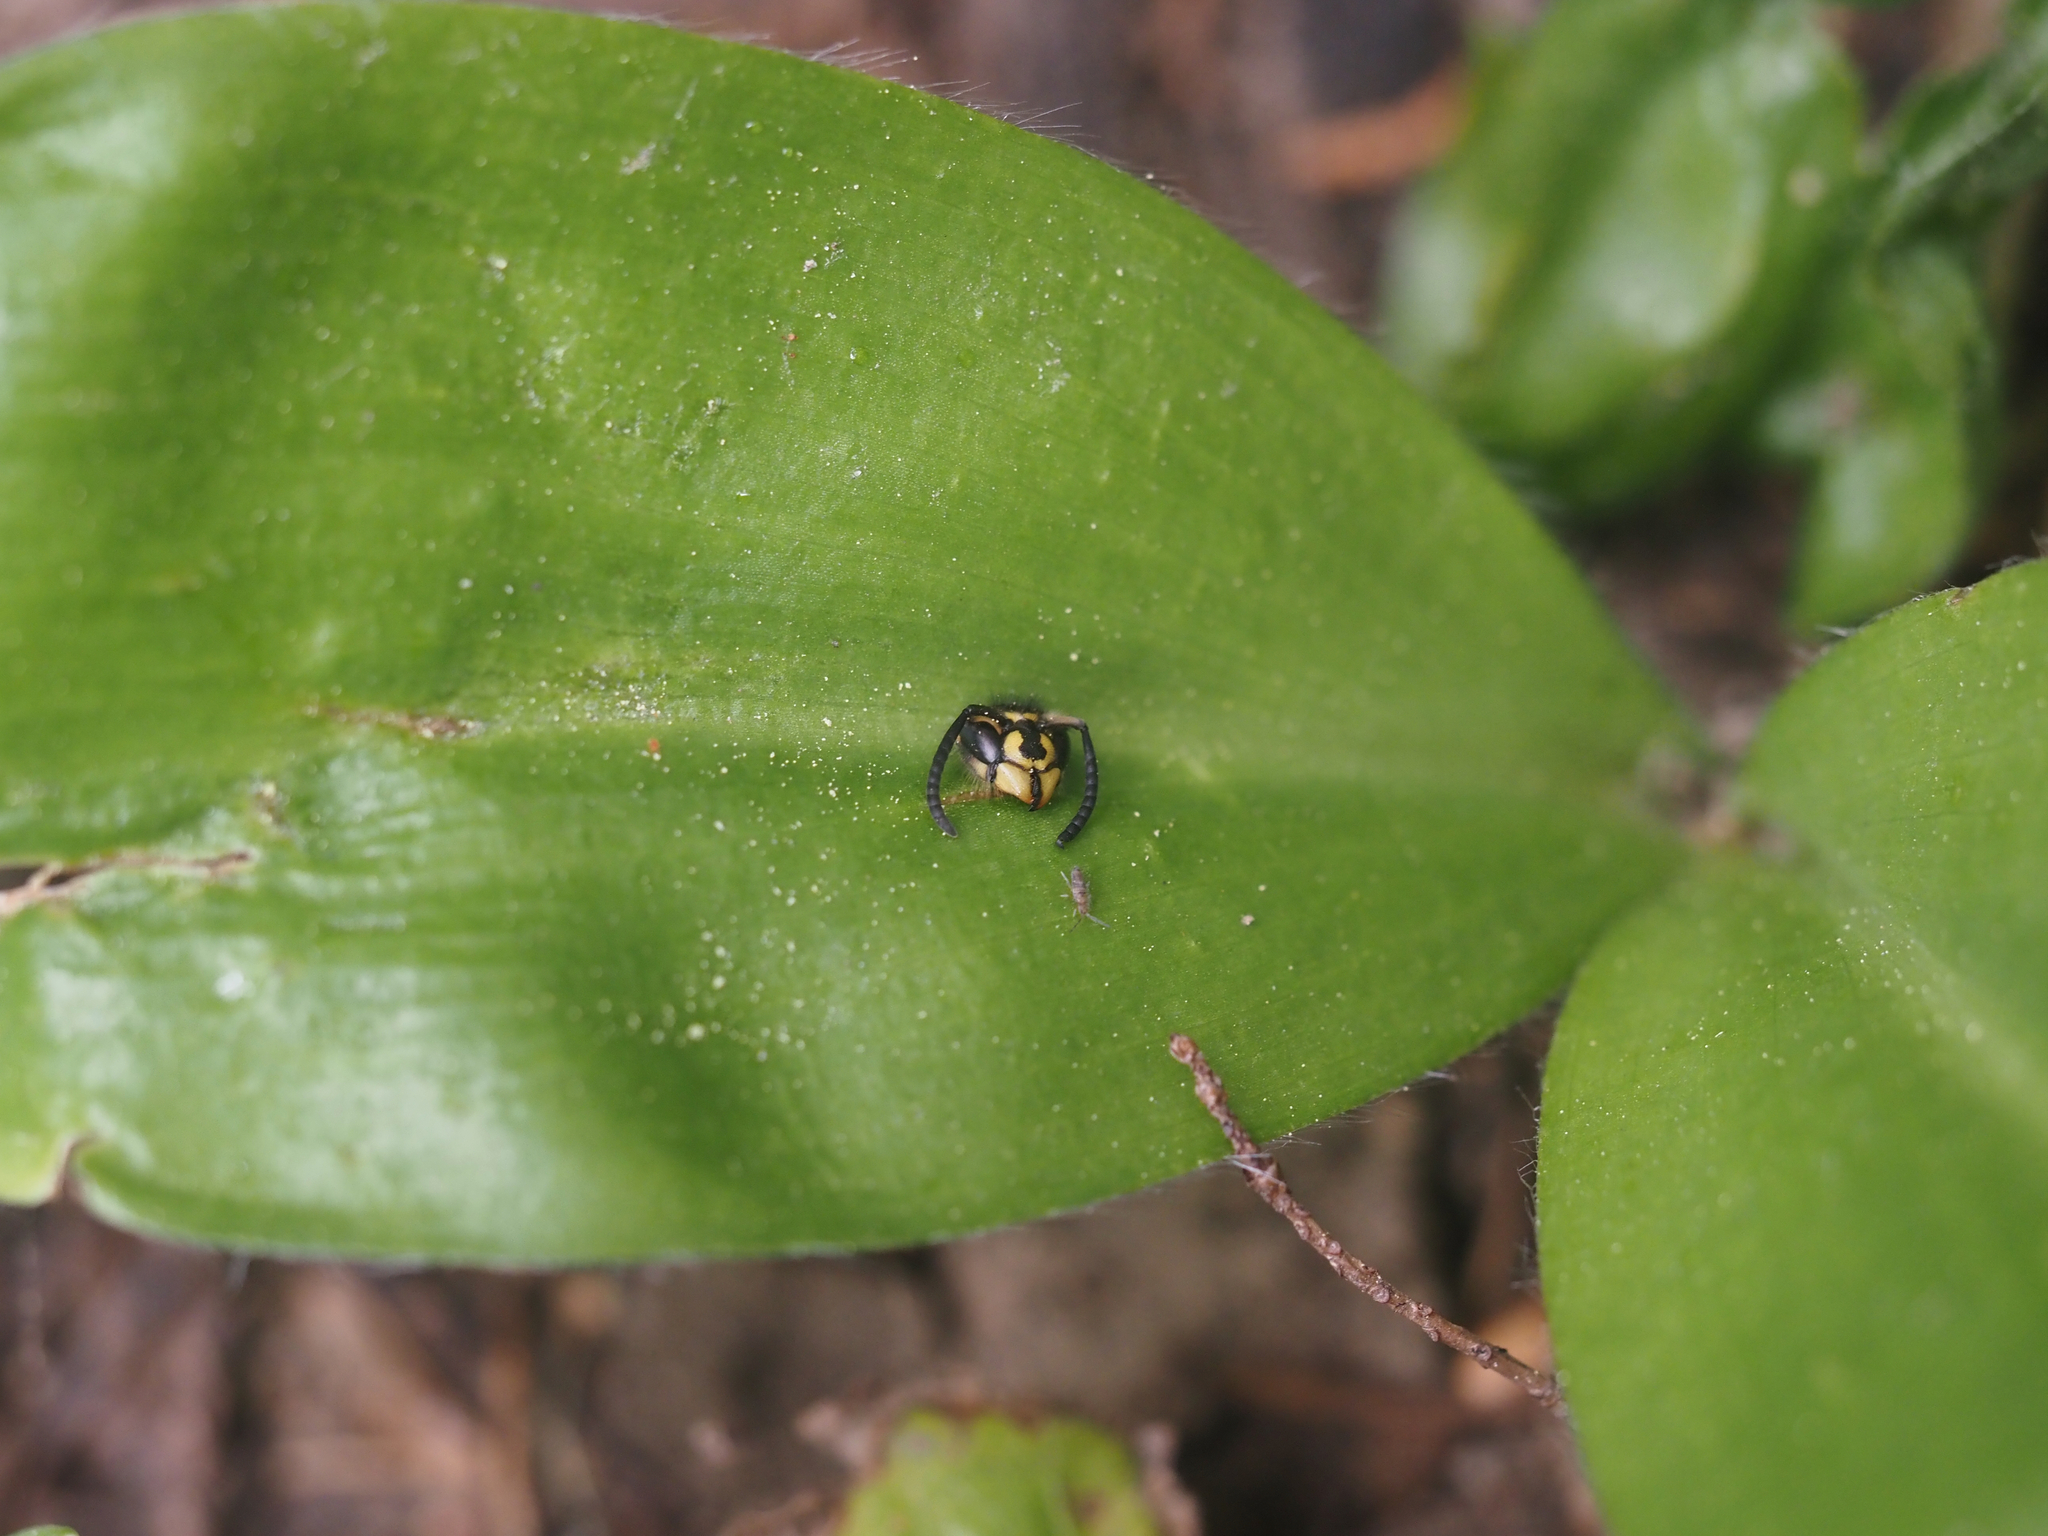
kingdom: Animalia
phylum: Arthropoda
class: Insecta
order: Hymenoptera
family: Vespidae
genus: Vespula
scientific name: Vespula alascensis
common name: Alaska yellowjacket
